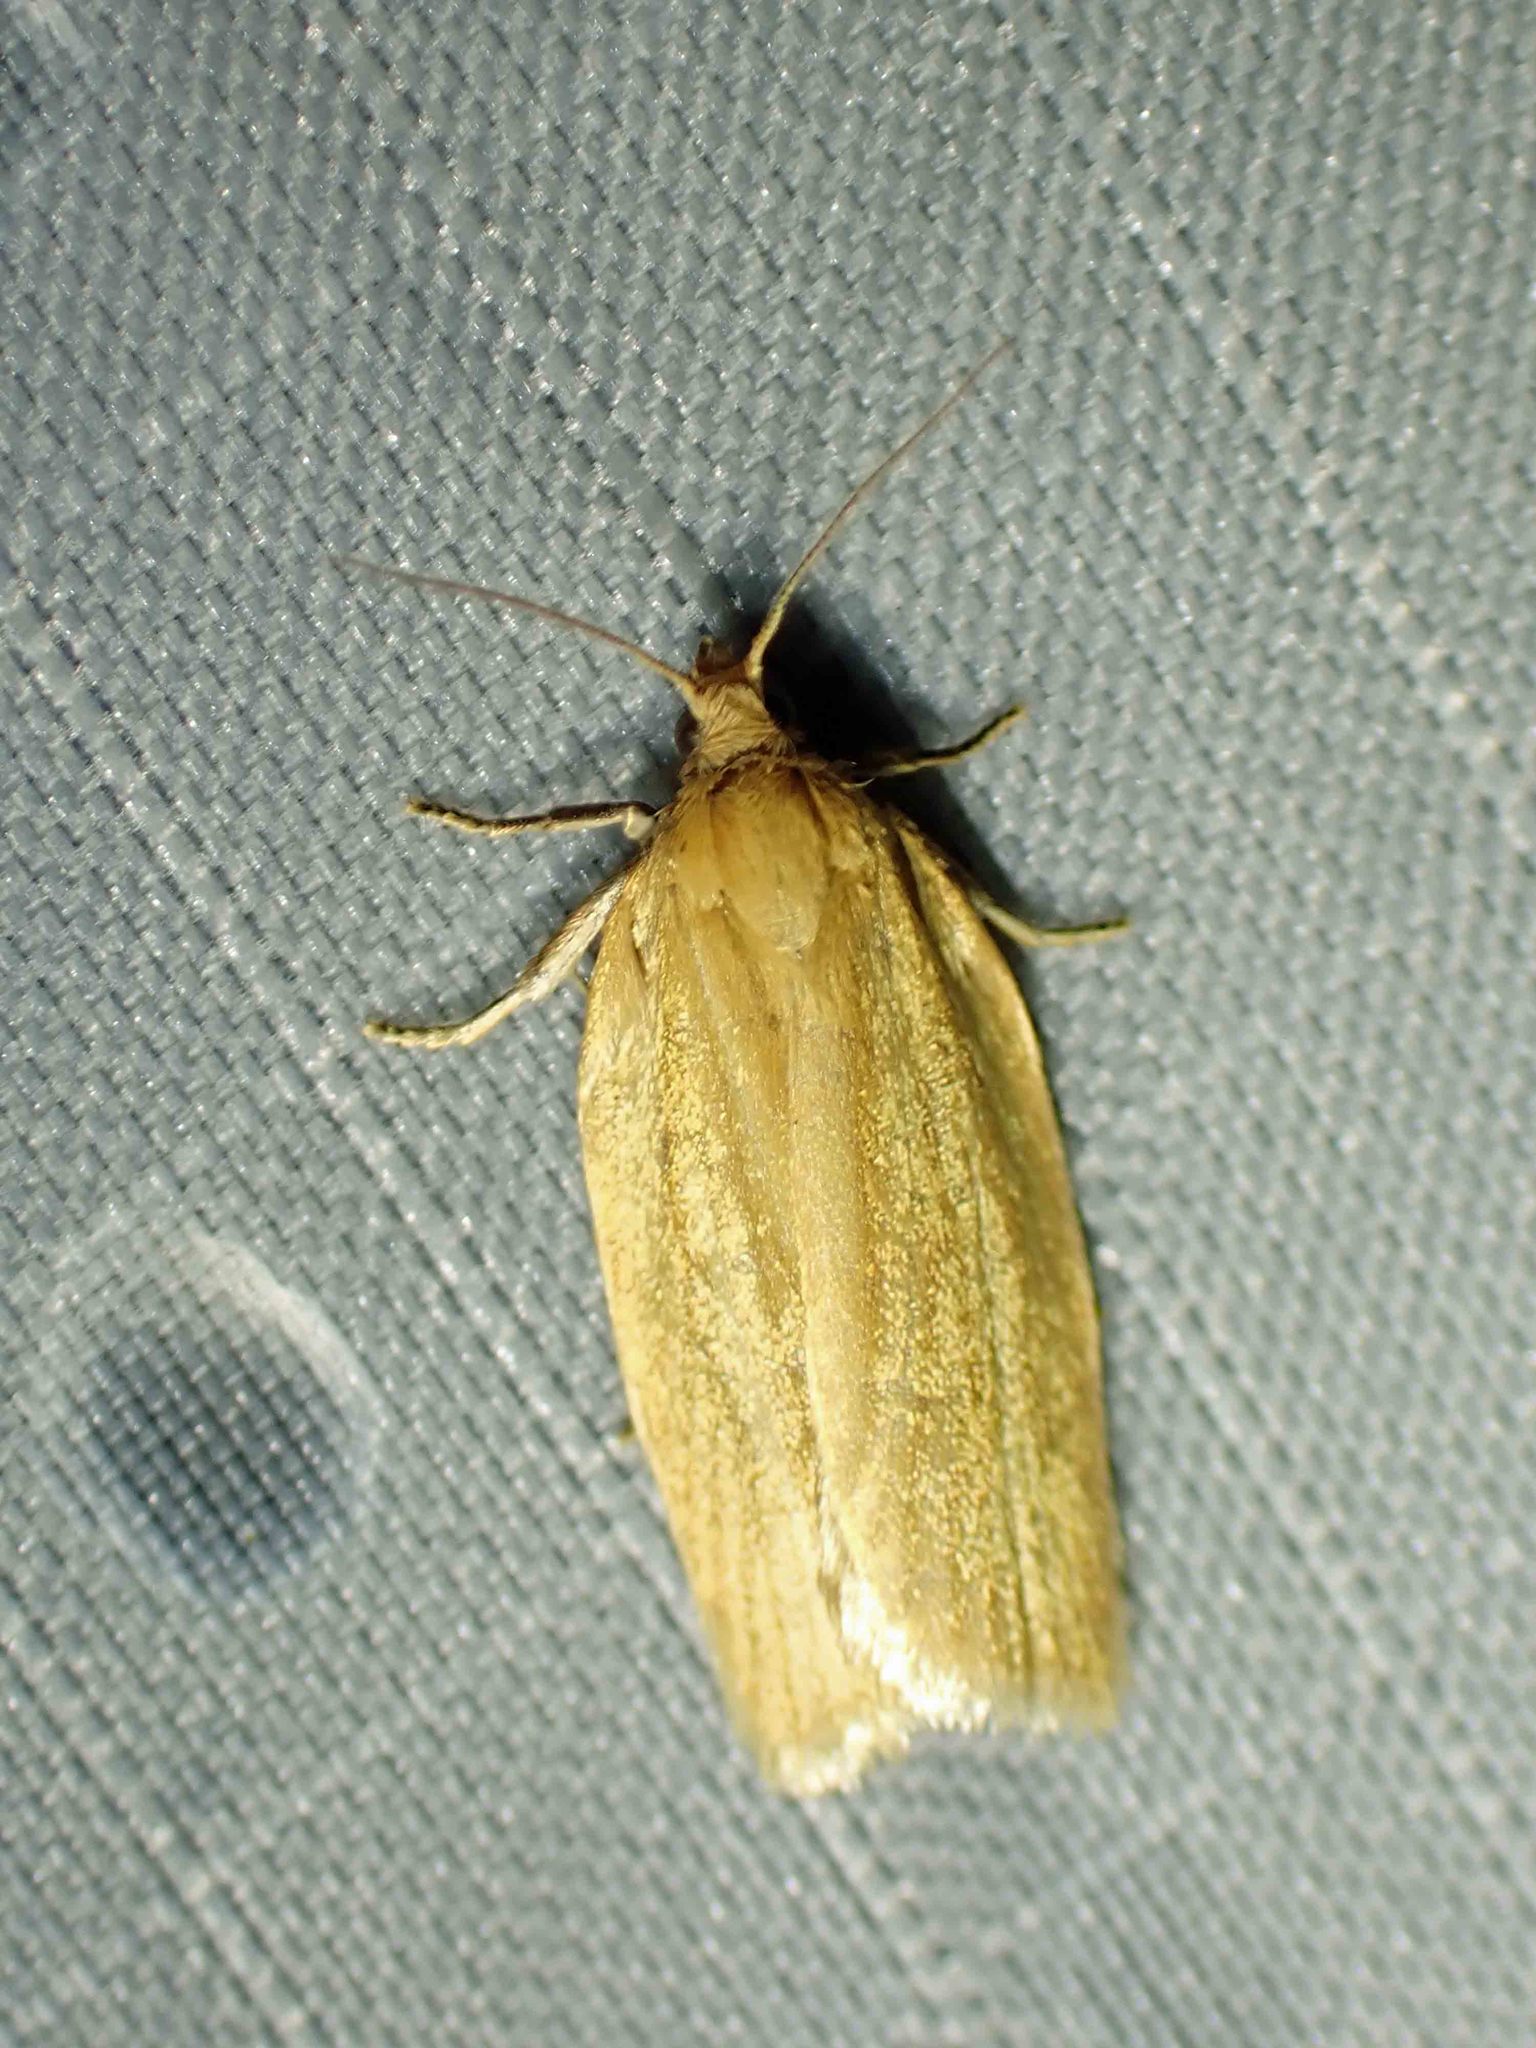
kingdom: Animalia
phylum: Arthropoda
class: Insecta
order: Lepidoptera
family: Tortricidae
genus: Clepsis
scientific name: Clepsis clemensiana
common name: Clemens' clepsis moth
